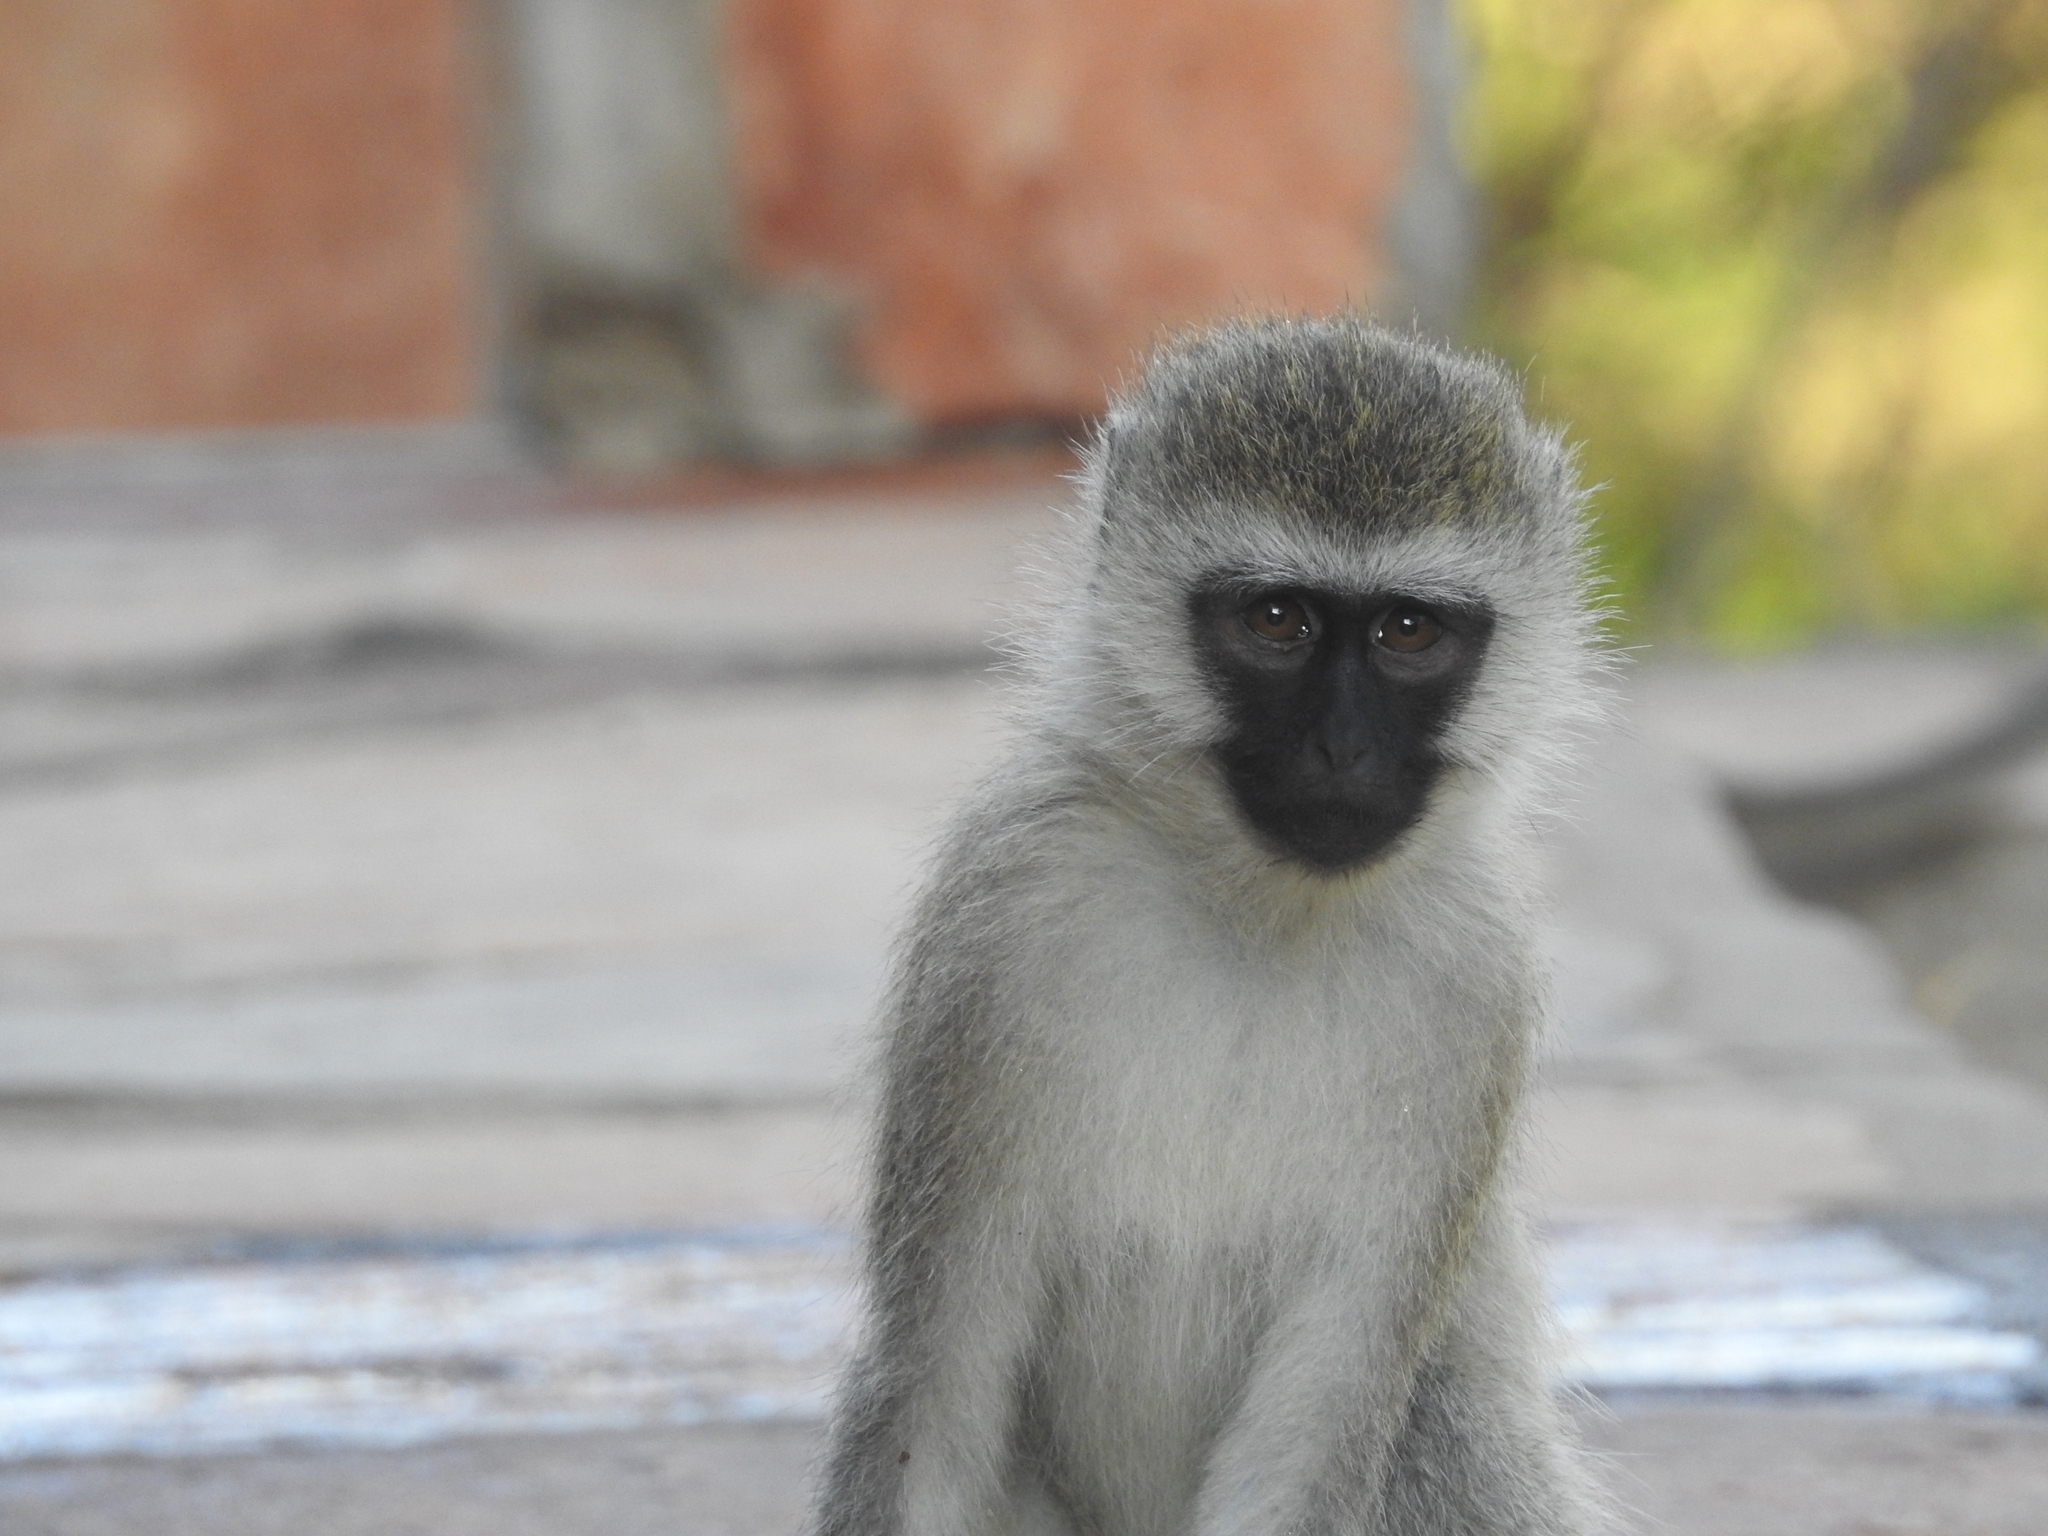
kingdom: Animalia
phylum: Chordata
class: Mammalia
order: Primates
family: Cercopithecidae
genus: Chlorocebus
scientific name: Chlorocebus pygerythrus
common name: Vervet monkey
